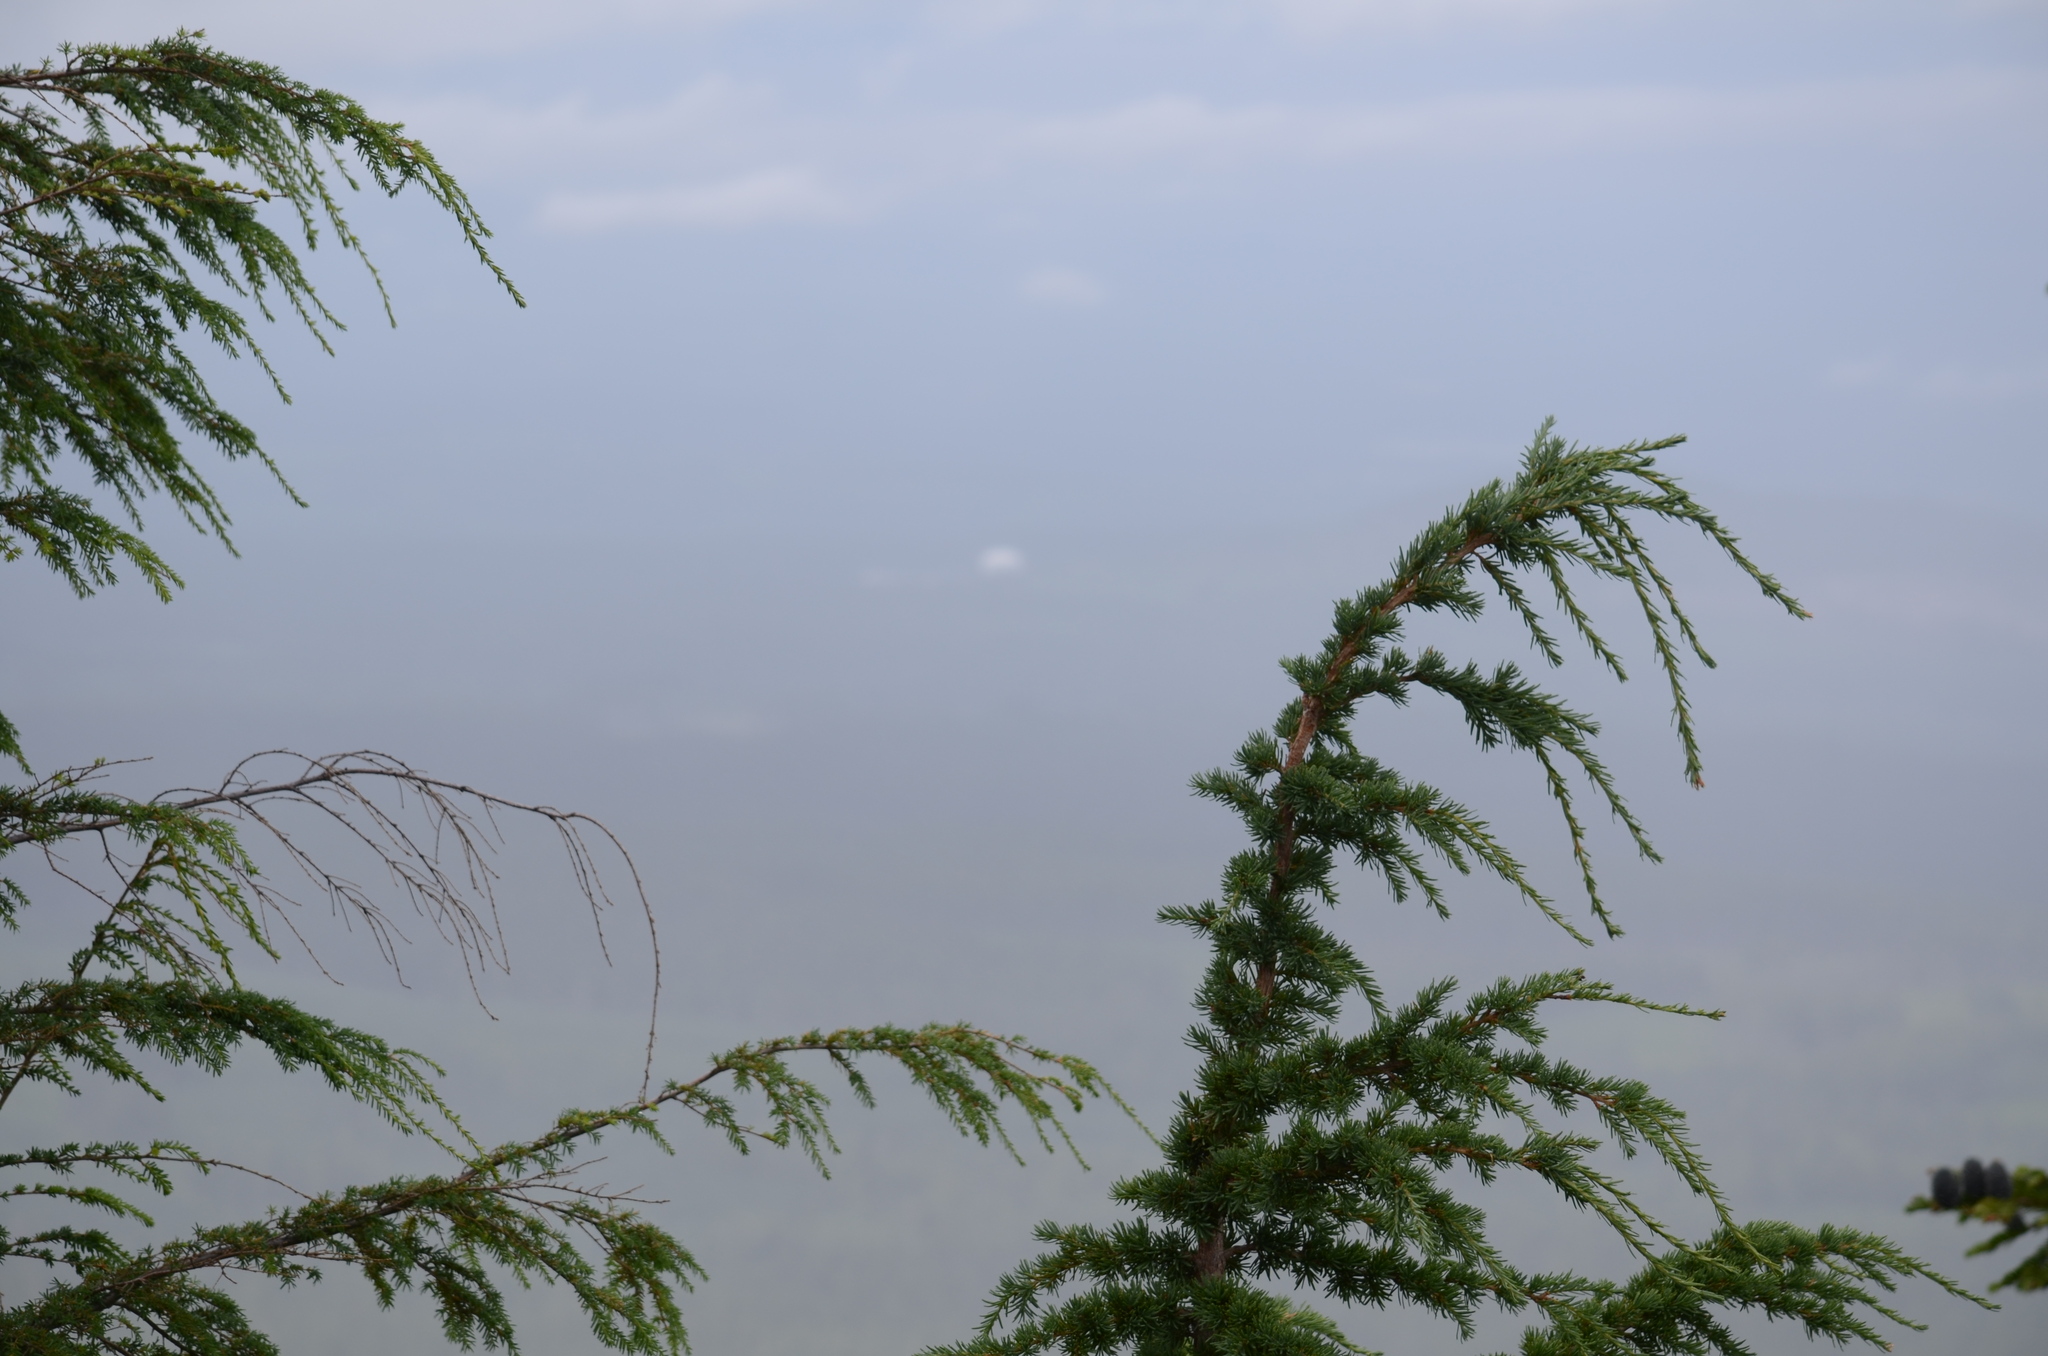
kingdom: Plantae
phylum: Tracheophyta
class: Pinopsida
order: Pinales
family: Pinaceae
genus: Tsuga
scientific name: Tsuga mertensiana
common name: Mountain hemlock
